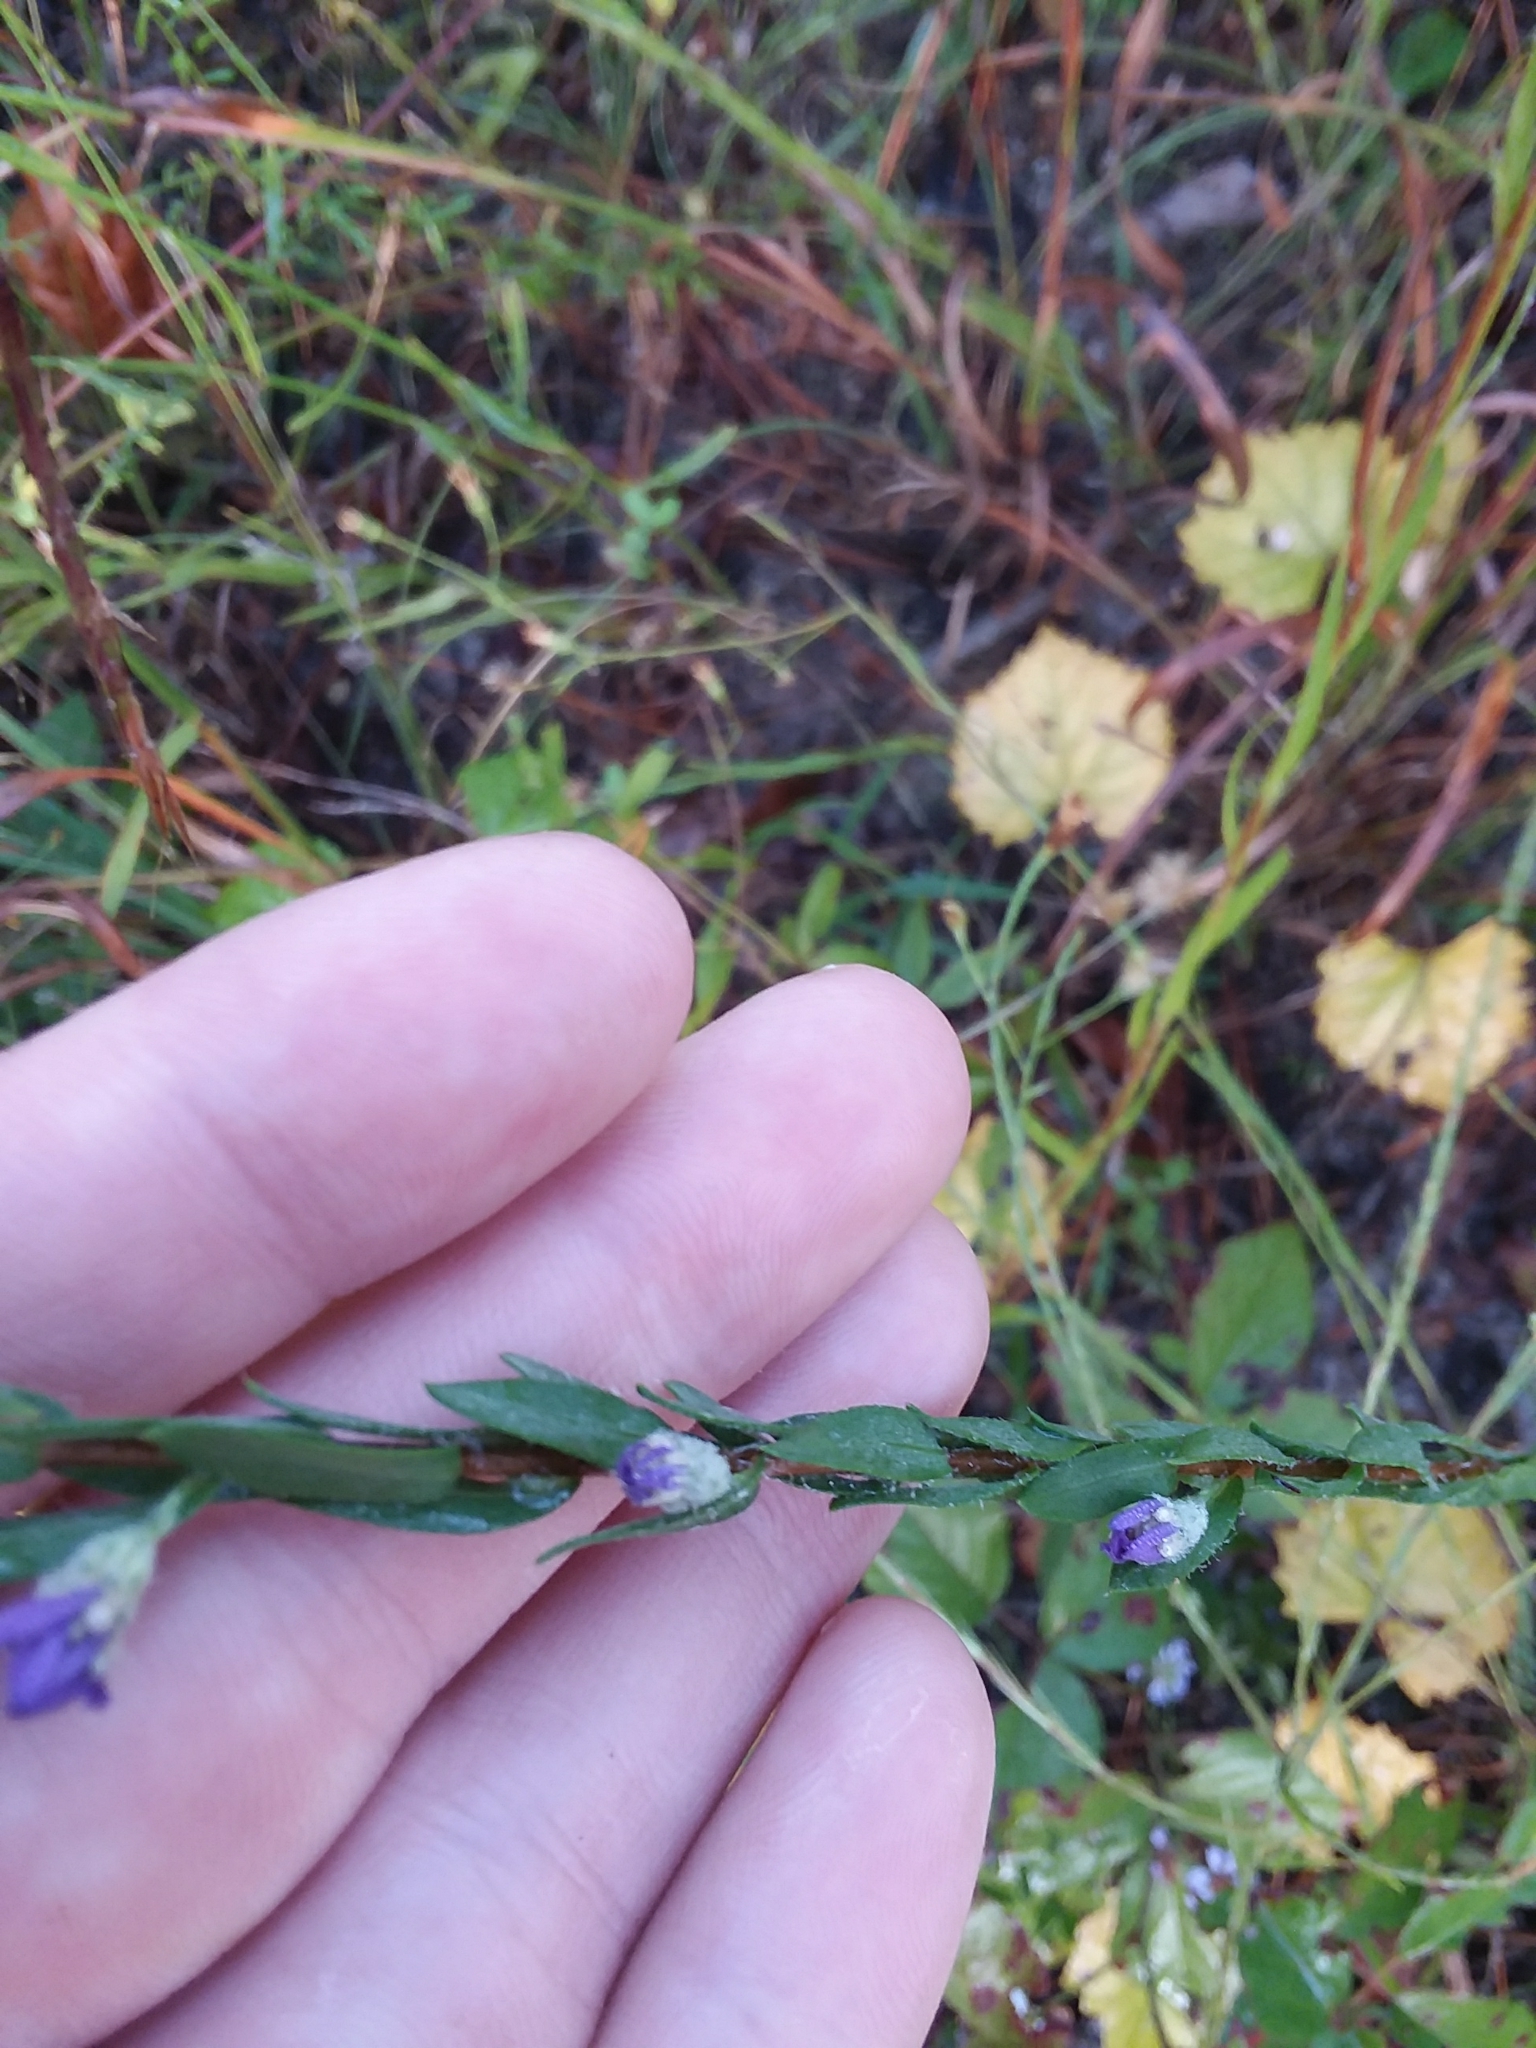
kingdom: Plantae
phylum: Tracheophyta
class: Magnoliopsida
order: Asterales
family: Asteraceae
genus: Symphyotrichum
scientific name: Symphyotrichum concolor
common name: Eastern silver aster
